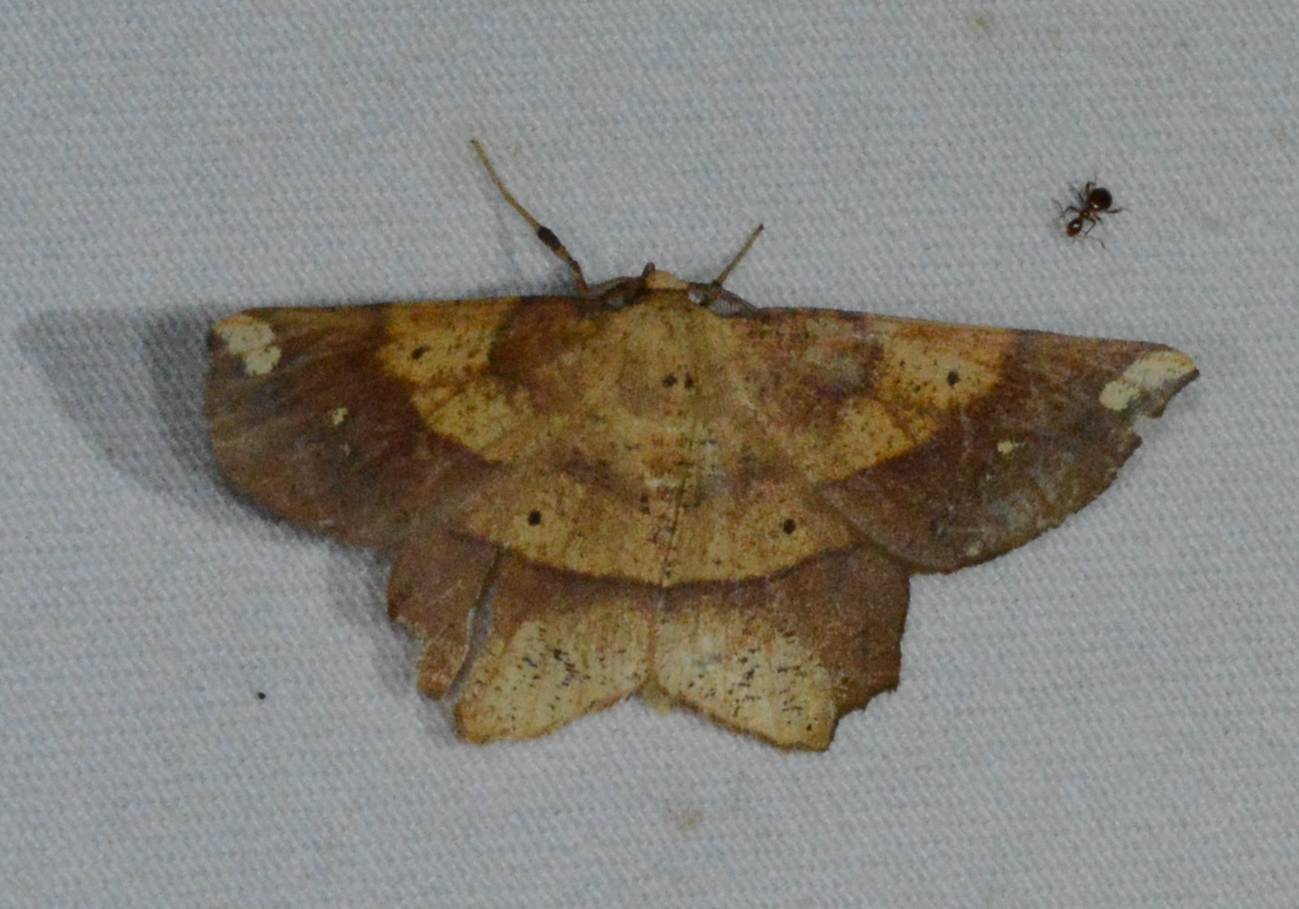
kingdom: Animalia
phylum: Arthropoda
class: Insecta
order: Lepidoptera
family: Geometridae
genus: Euchlaena
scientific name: Euchlaena amoenaria
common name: Deep yellow euchlaena
